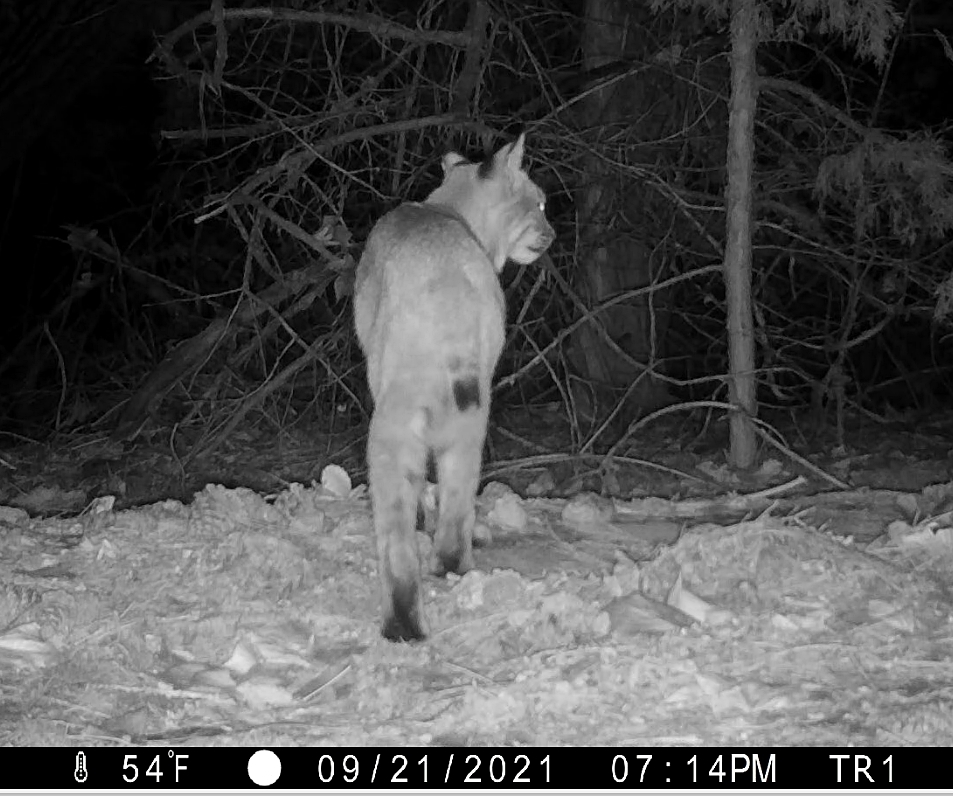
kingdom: Animalia
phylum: Chordata
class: Mammalia
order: Carnivora
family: Felidae
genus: Lynx
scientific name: Lynx rufus
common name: Bobcat
